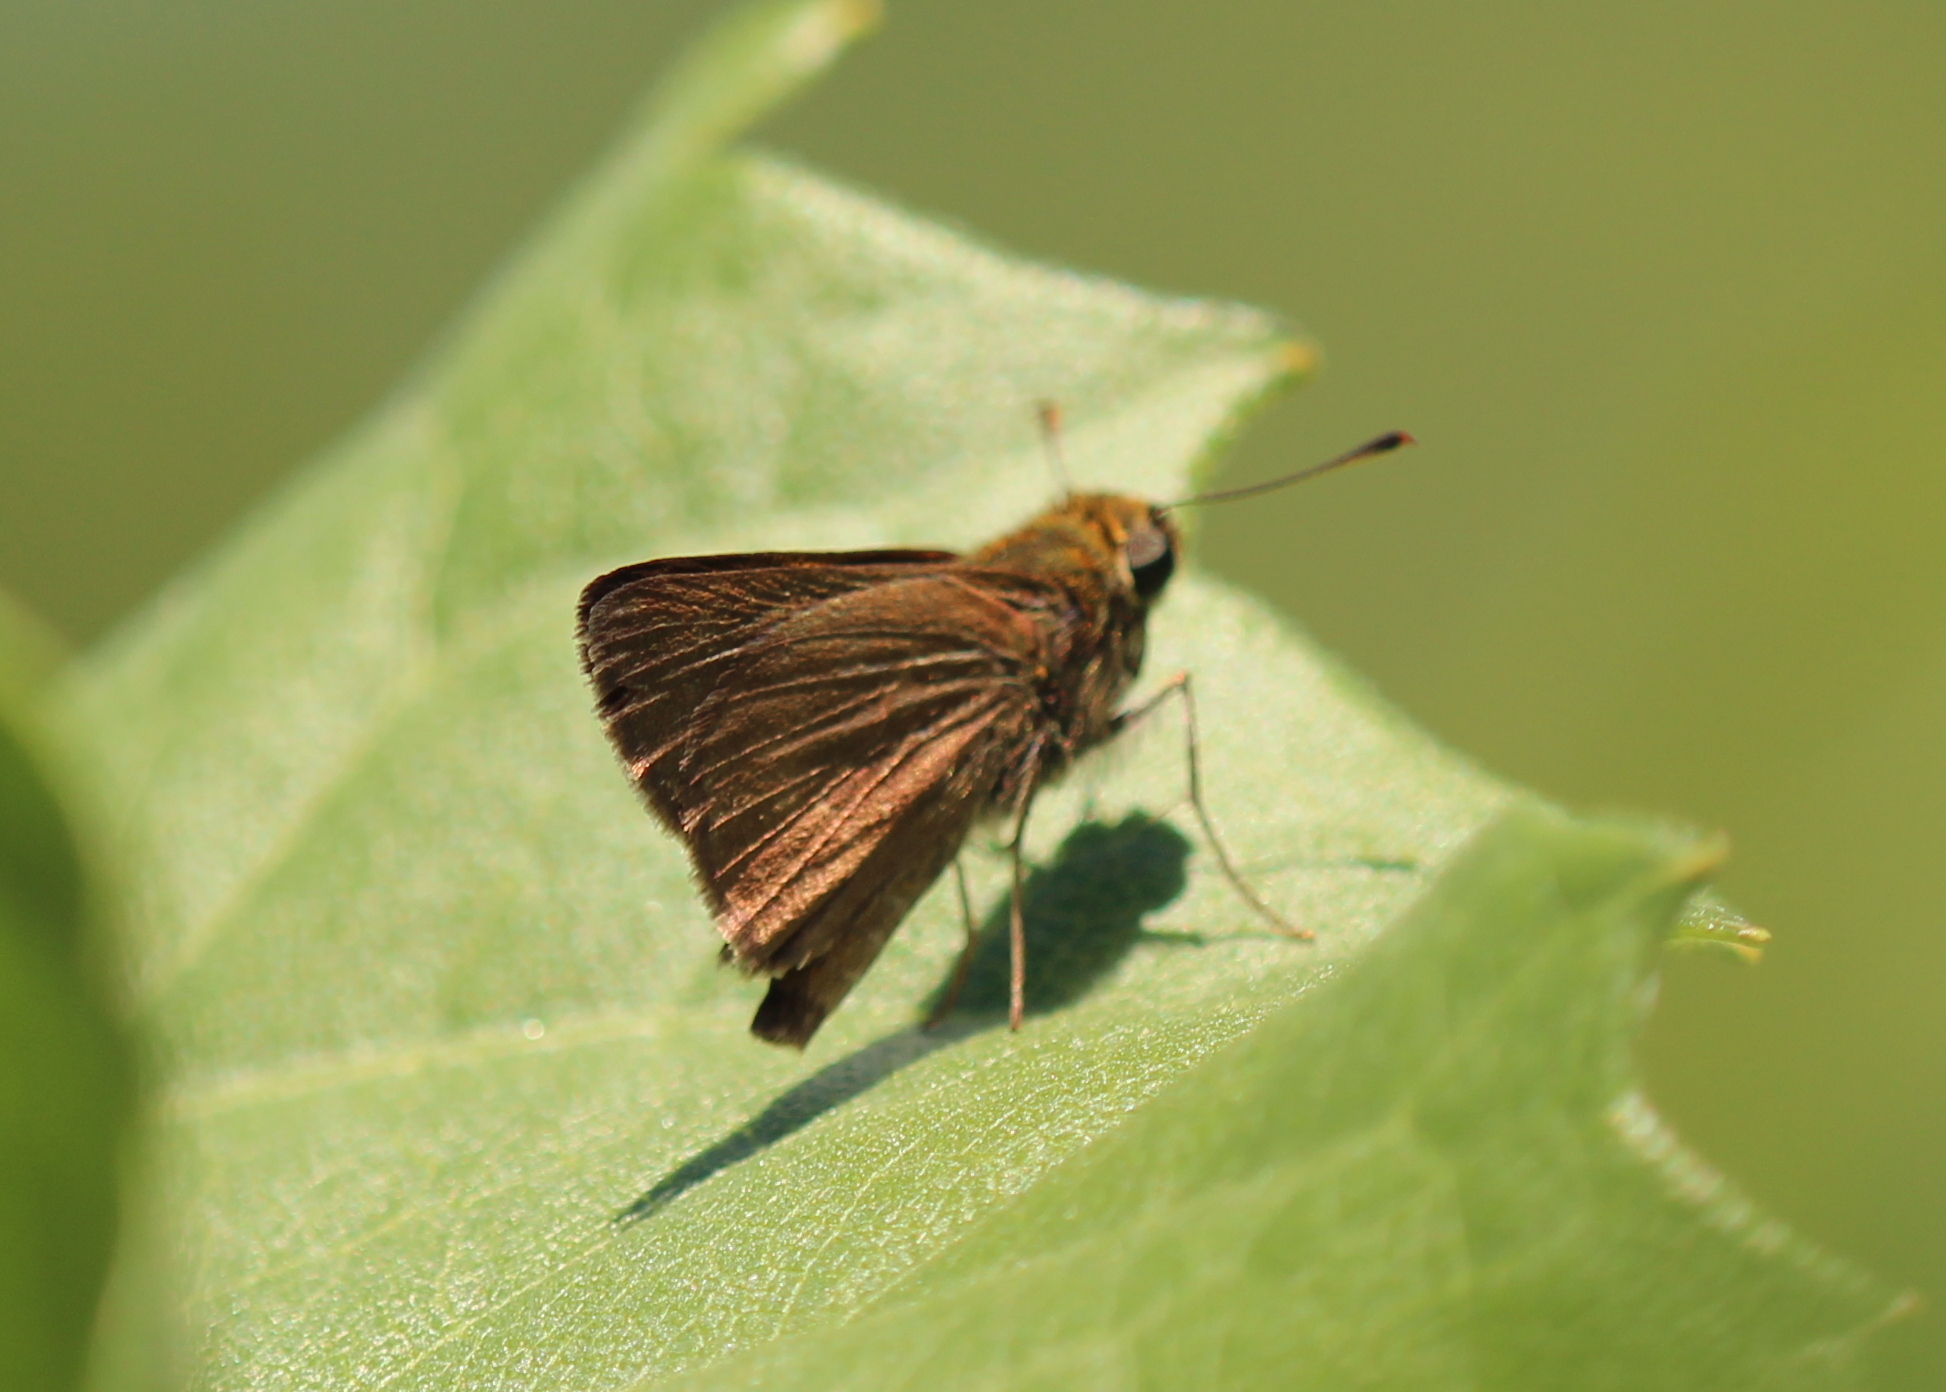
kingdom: Animalia
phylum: Arthropoda
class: Insecta
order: Lepidoptera
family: Hesperiidae
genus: Euphyes
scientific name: Euphyes vestris
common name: Dun skipper
